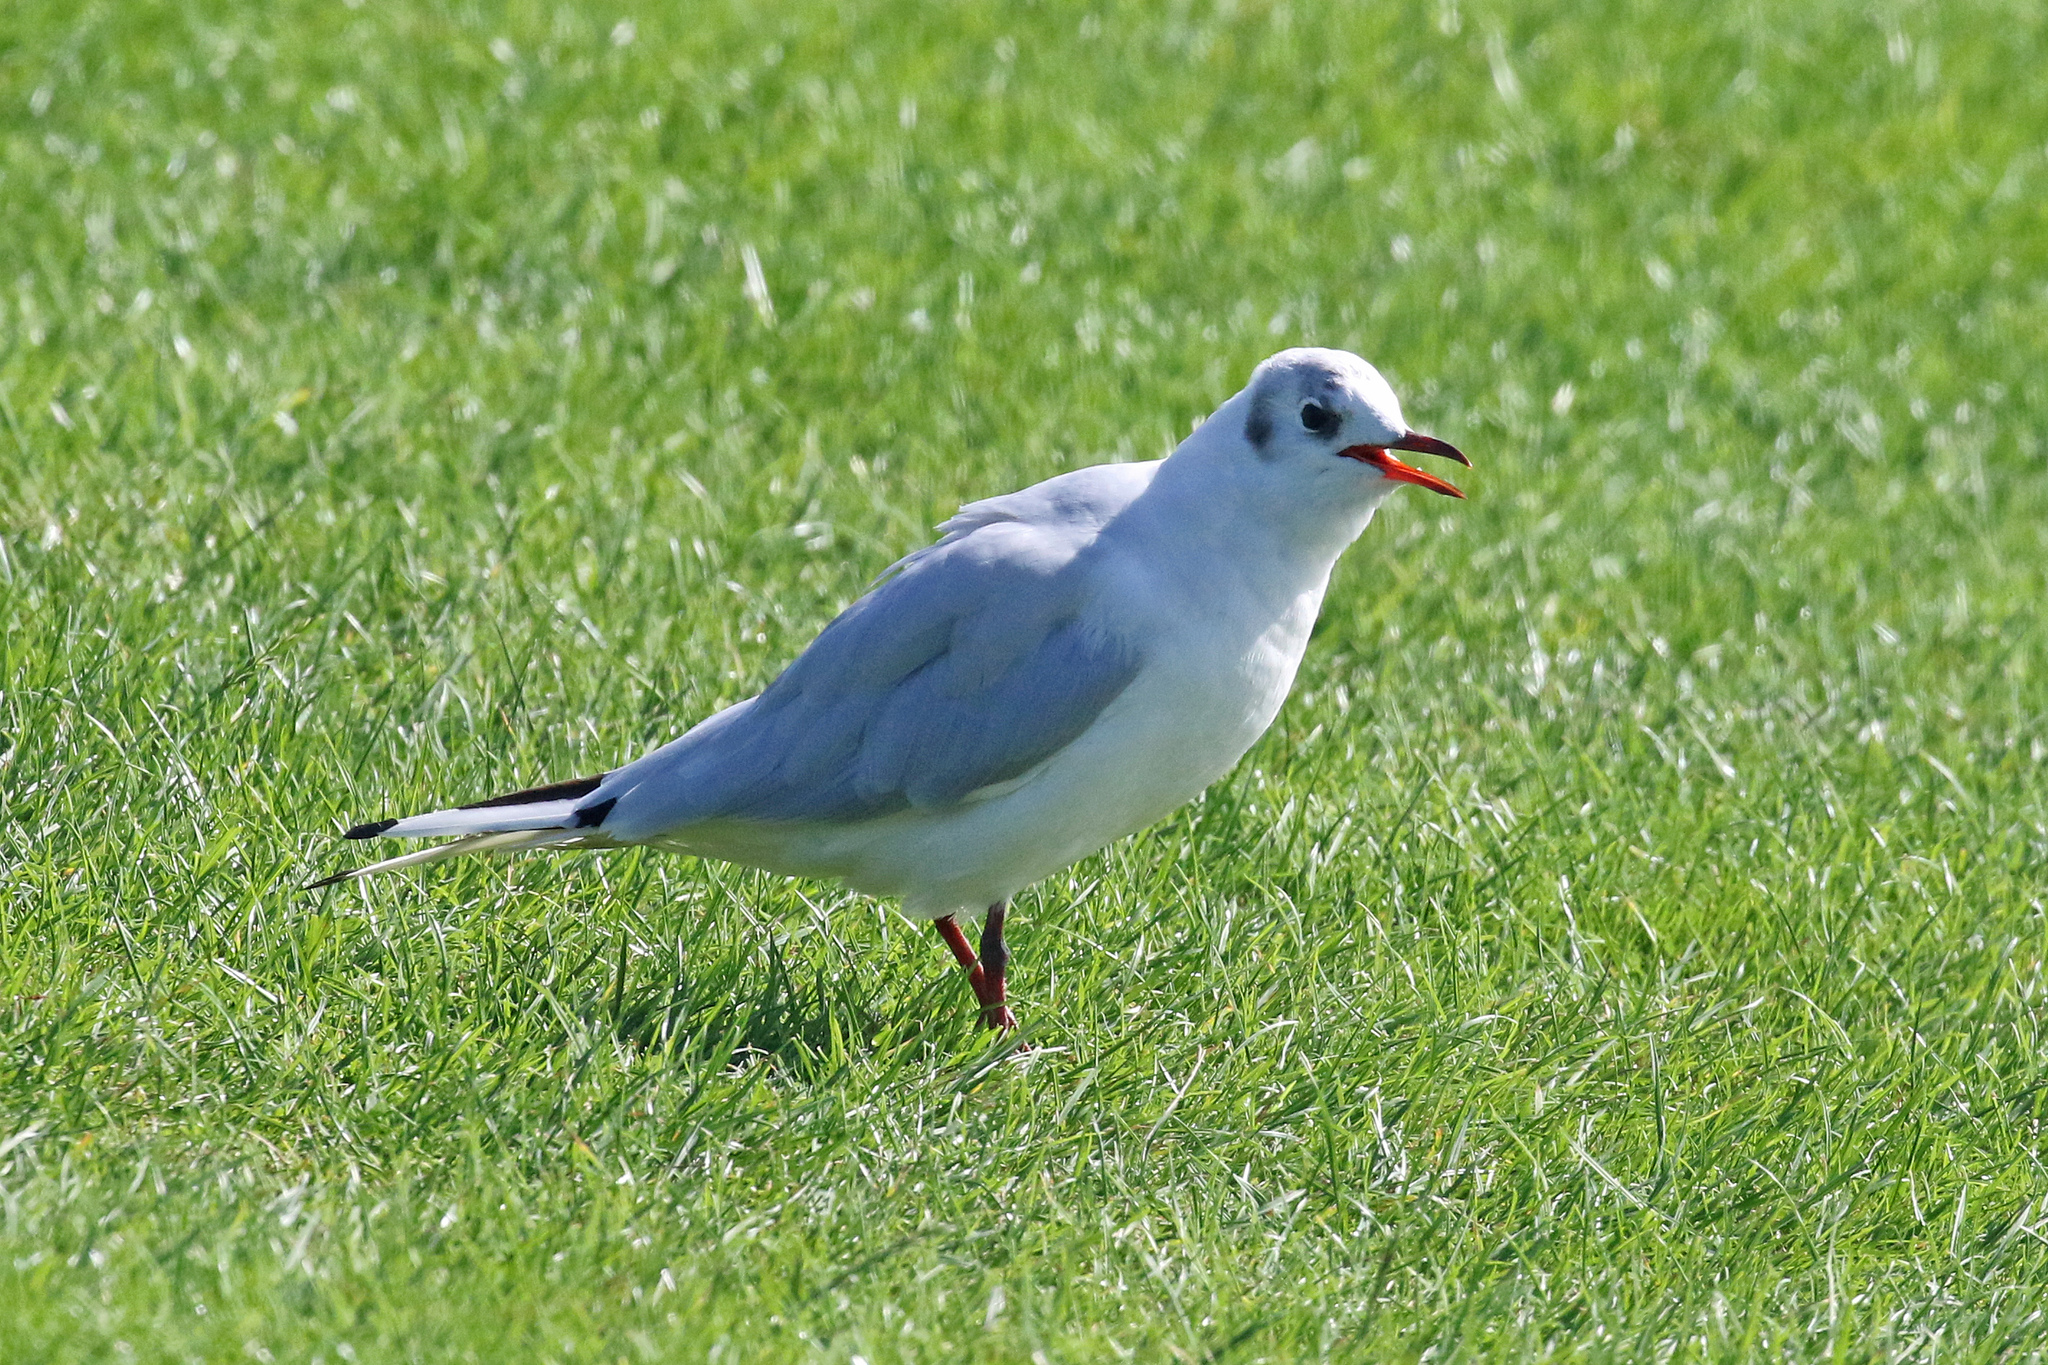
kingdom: Animalia
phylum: Chordata
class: Aves
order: Charadriiformes
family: Laridae
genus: Chroicocephalus
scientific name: Chroicocephalus ridibundus
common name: Black-headed gull
